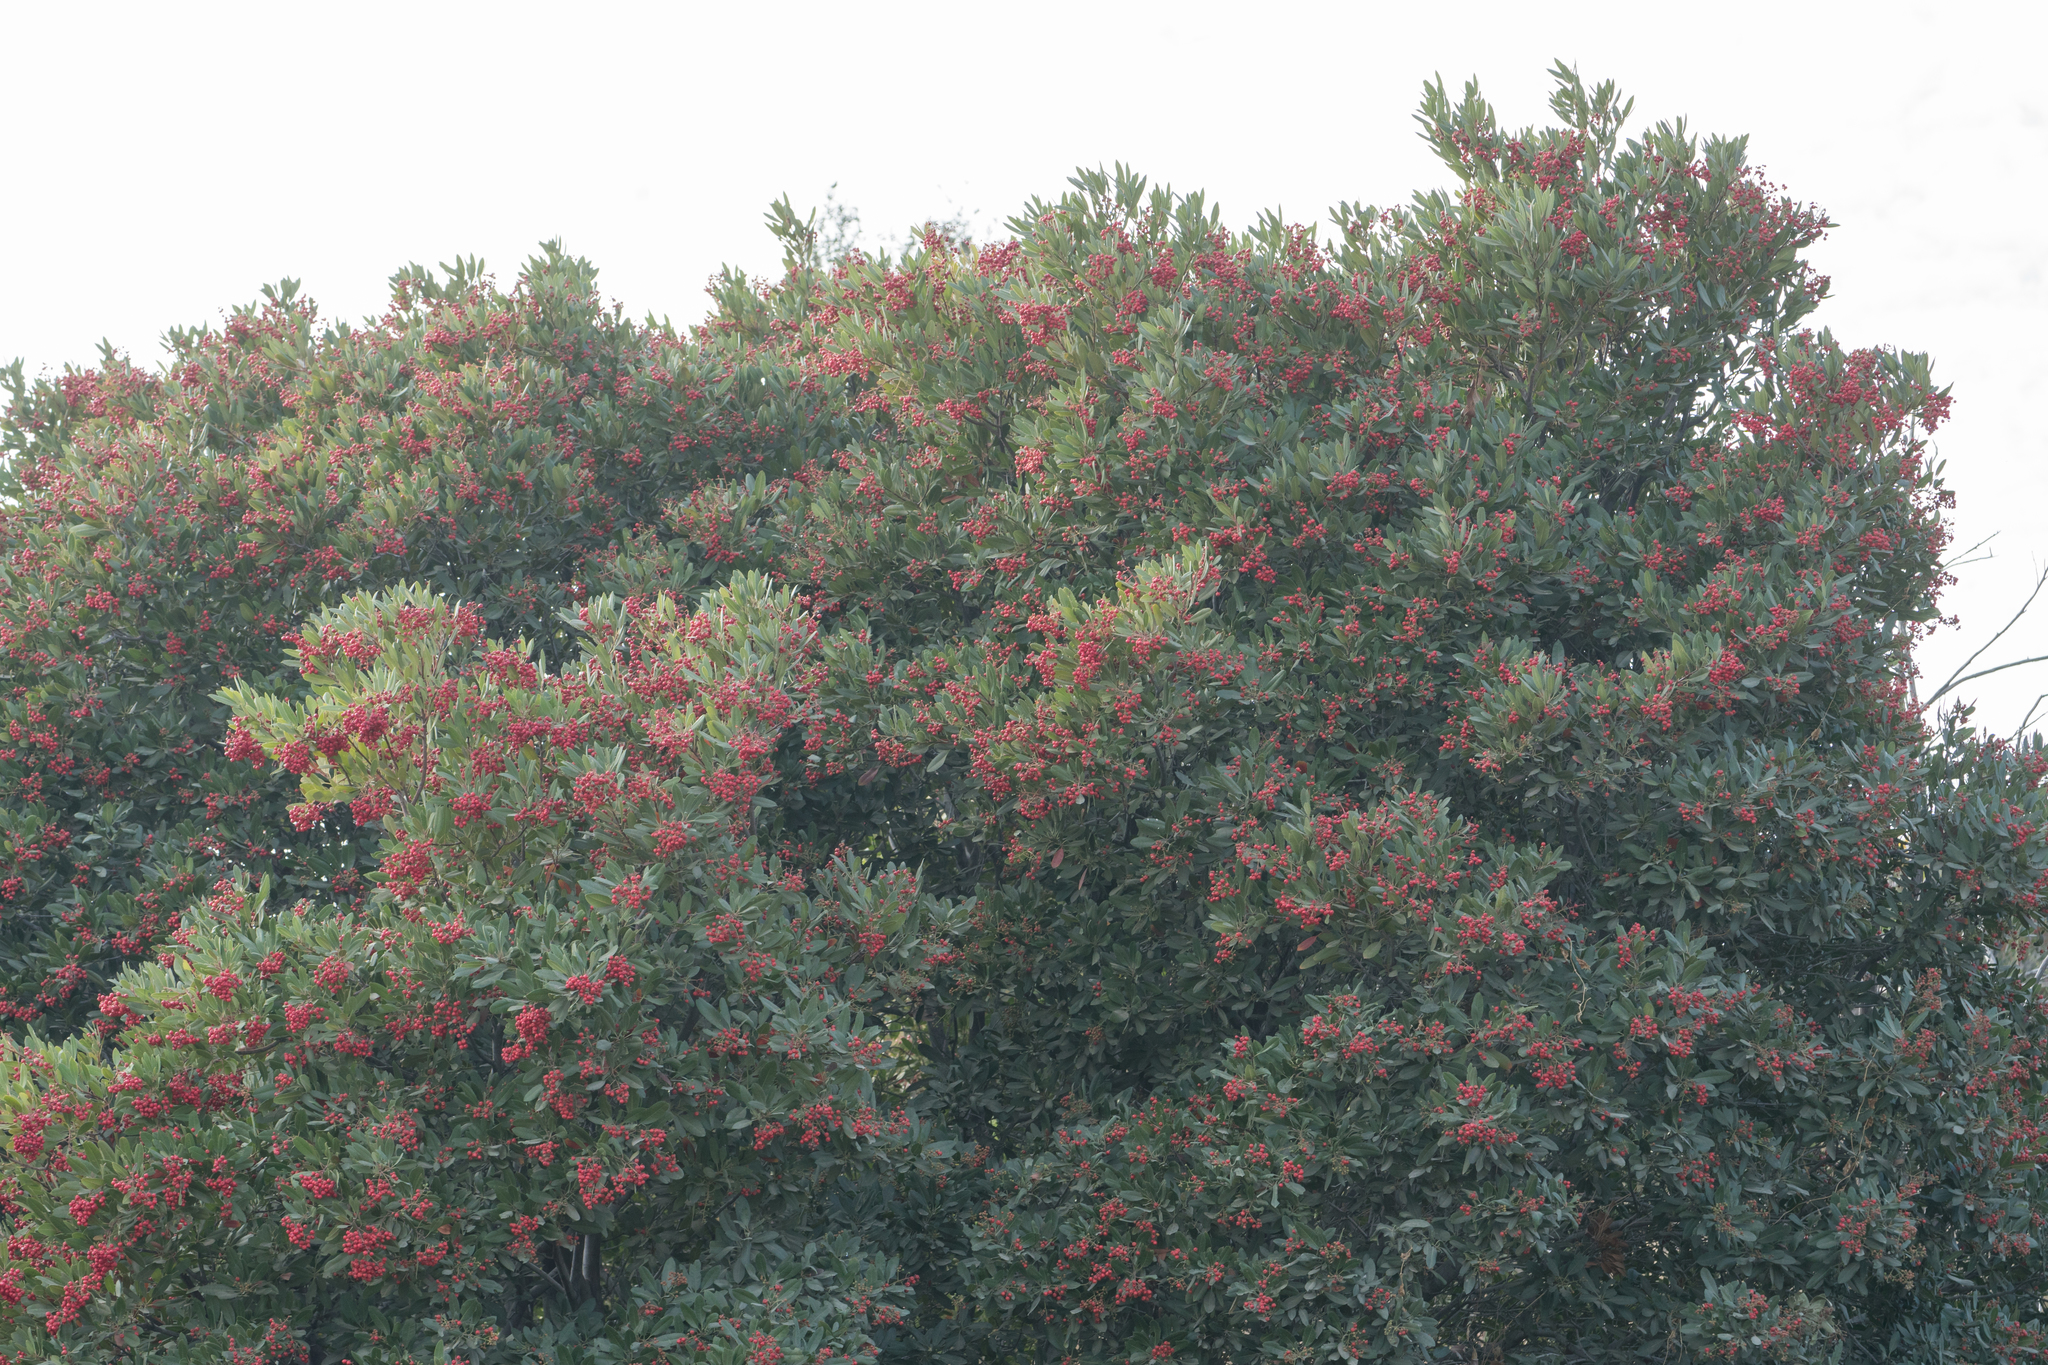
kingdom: Plantae
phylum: Tracheophyta
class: Magnoliopsida
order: Rosales
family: Rosaceae
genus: Heteromeles
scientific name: Heteromeles arbutifolia
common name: California-holly
